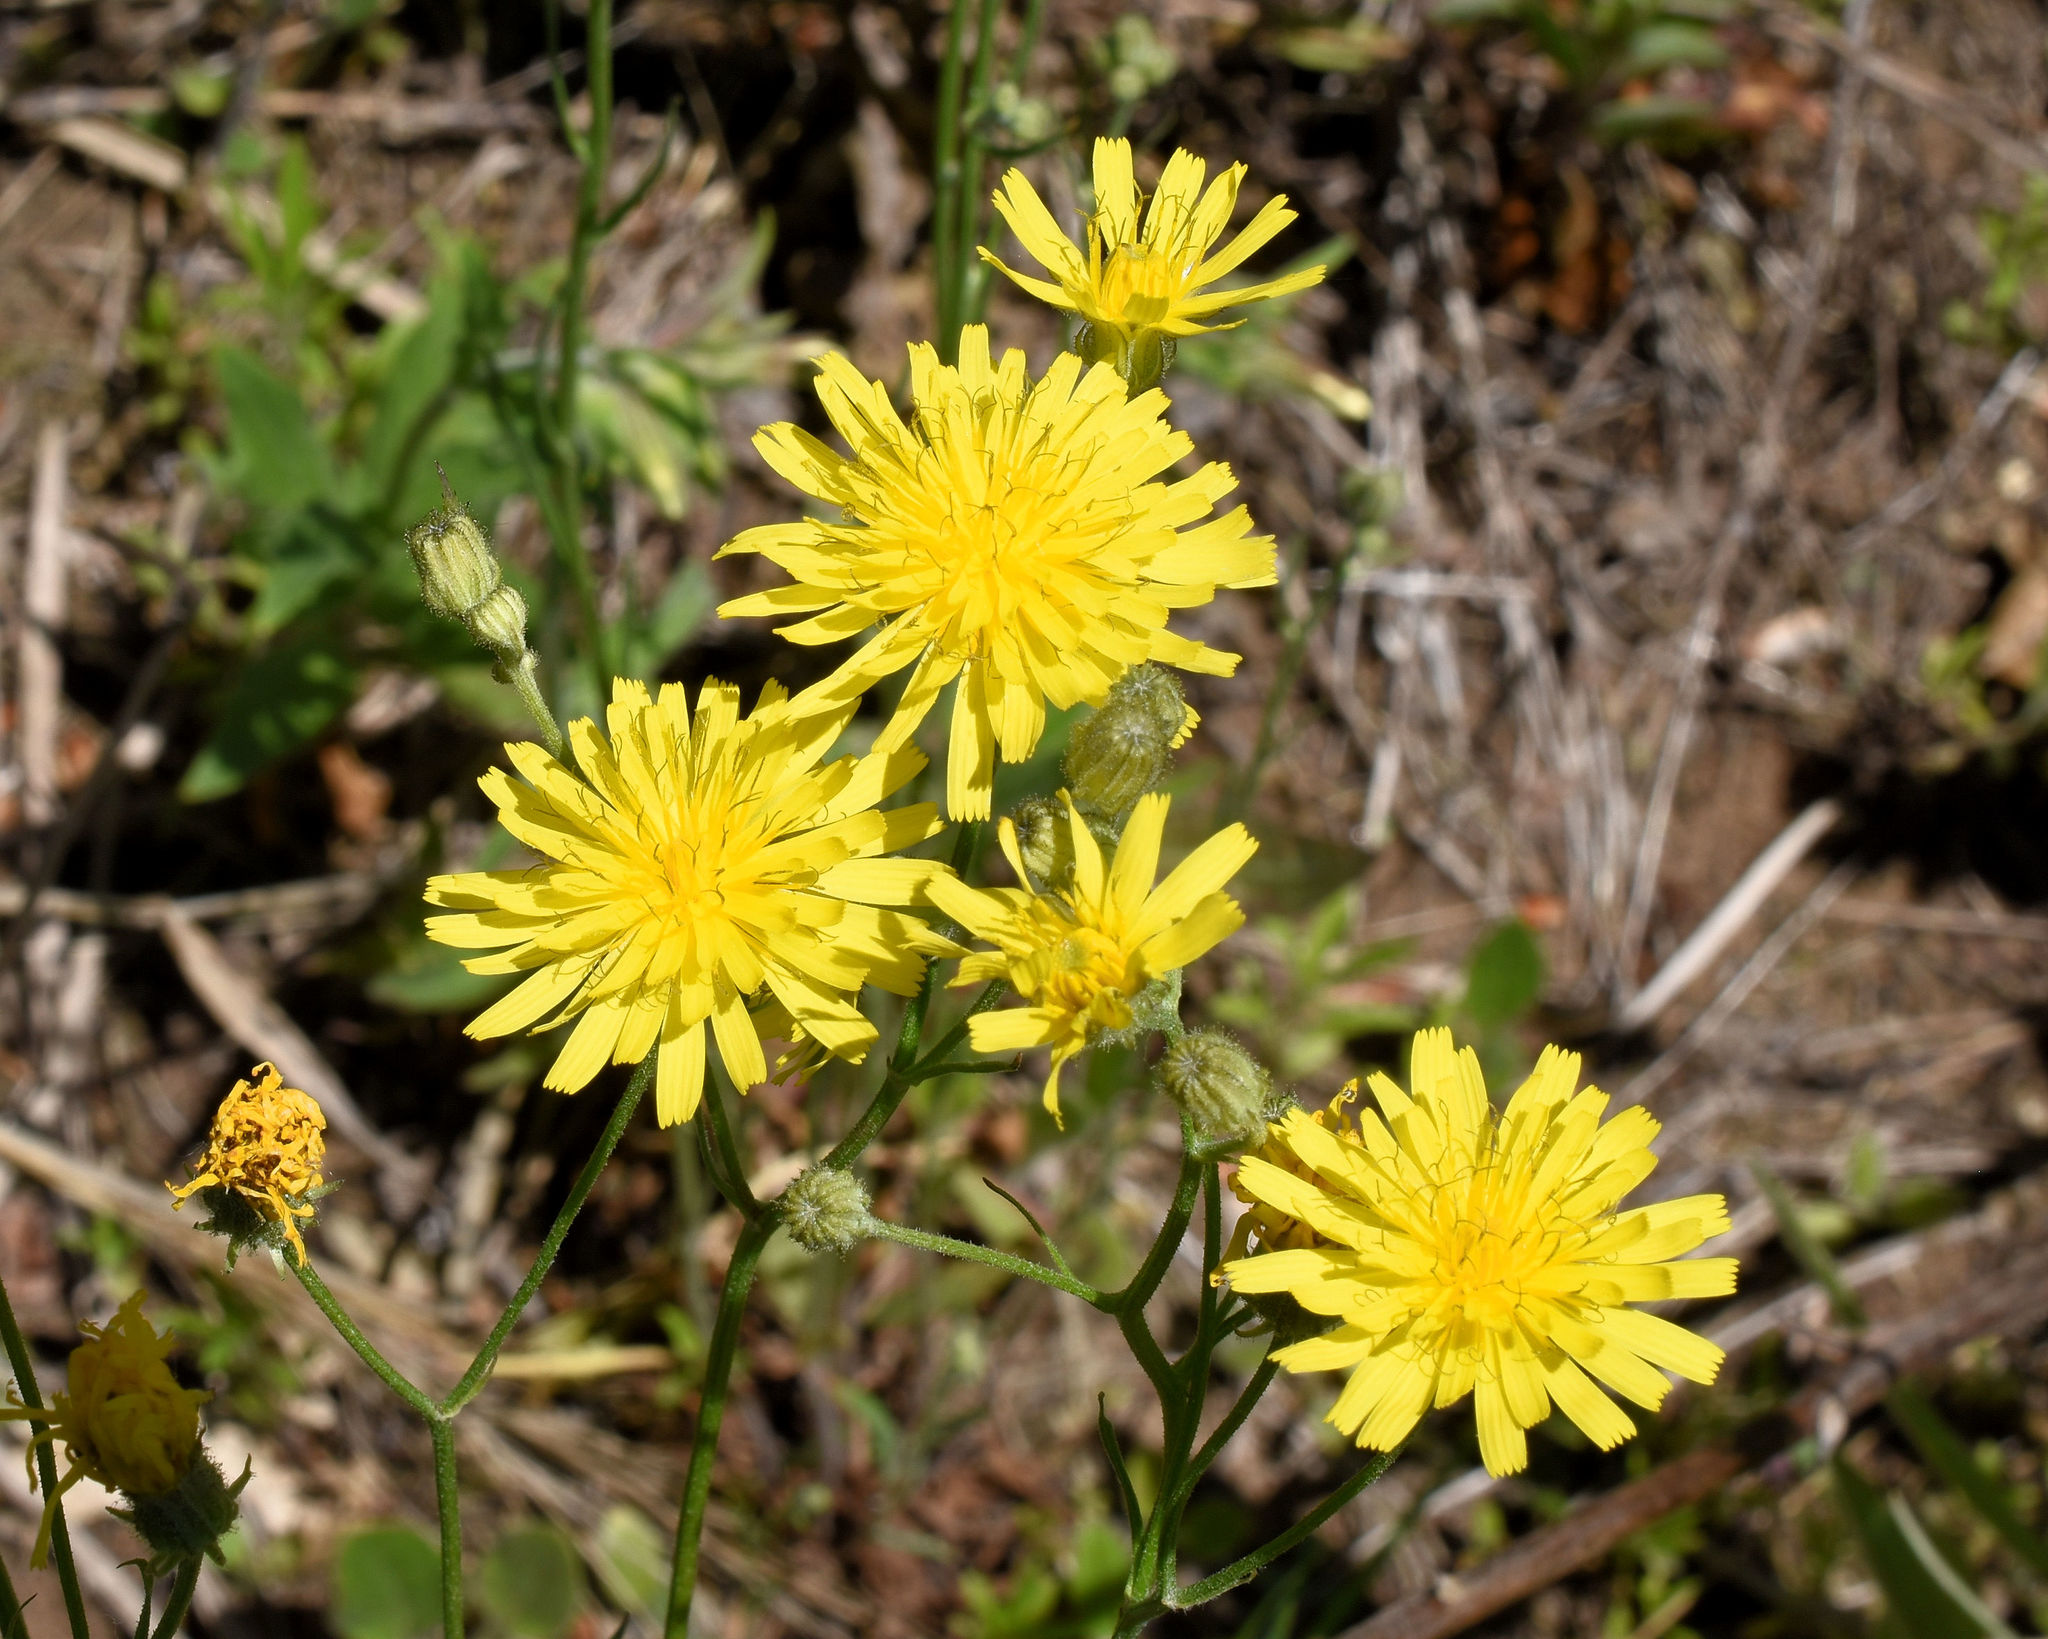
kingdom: Plantae
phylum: Tracheophyta
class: Magnoliopsida
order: Asterales
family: Asteraceae
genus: Crepis
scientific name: Crepis tectorum
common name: Narrow-leaved hawk's-beard
